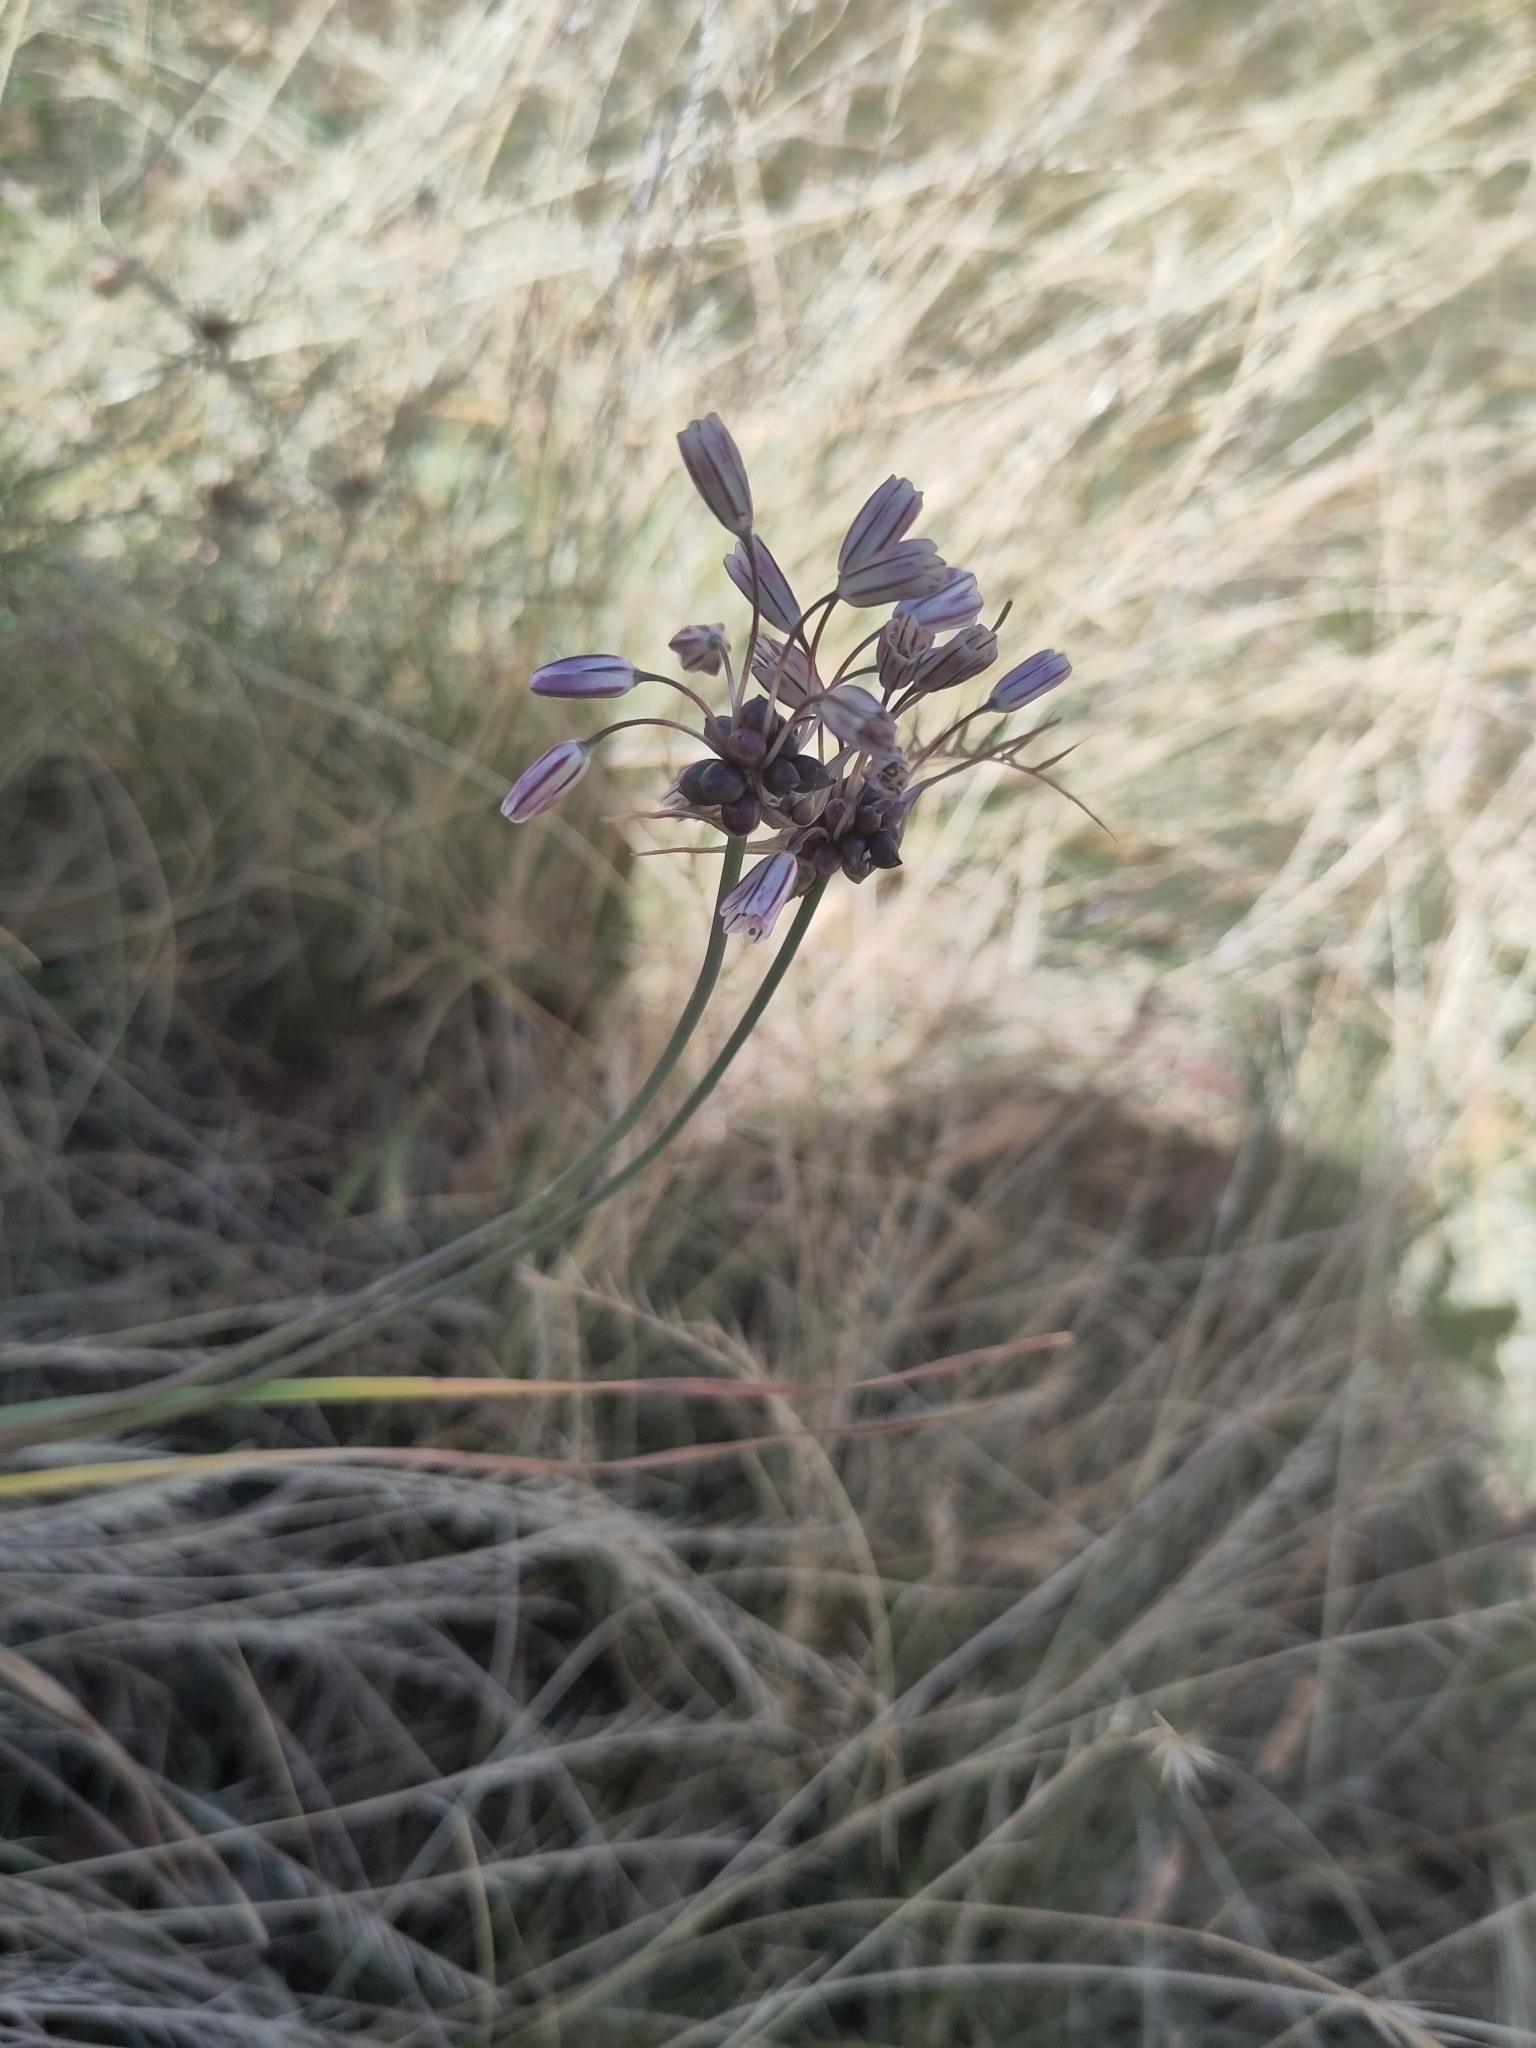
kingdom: Plantae
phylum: Tracheophyta
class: Liliopsida
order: Asparagales
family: Amaryllidaceae
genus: Allium
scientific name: Allium oleraceum
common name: Field garlic
